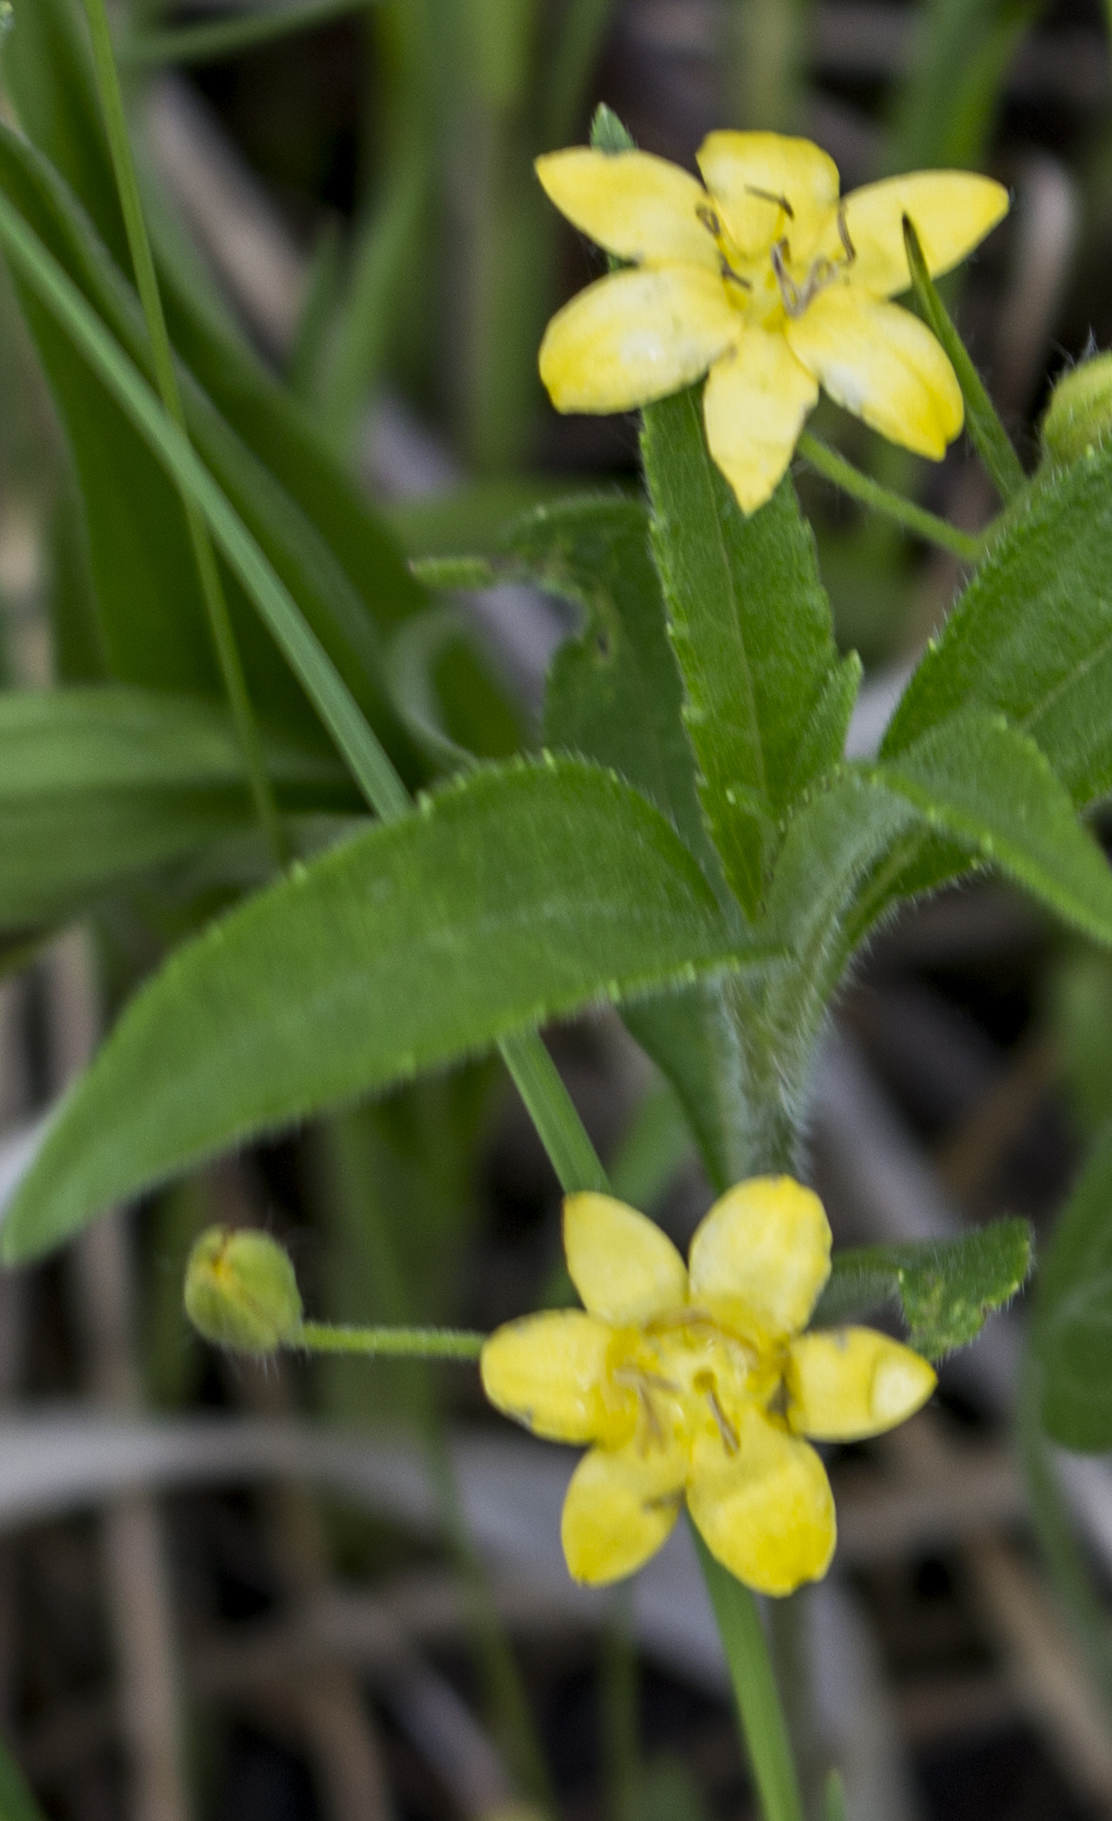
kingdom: Plantae
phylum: Tracheophyta
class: Liliopsida
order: Asparagales
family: Hypoxidaceae
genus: Hypoxis
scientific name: Hypoxis hirsuta
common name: Common goldstar
